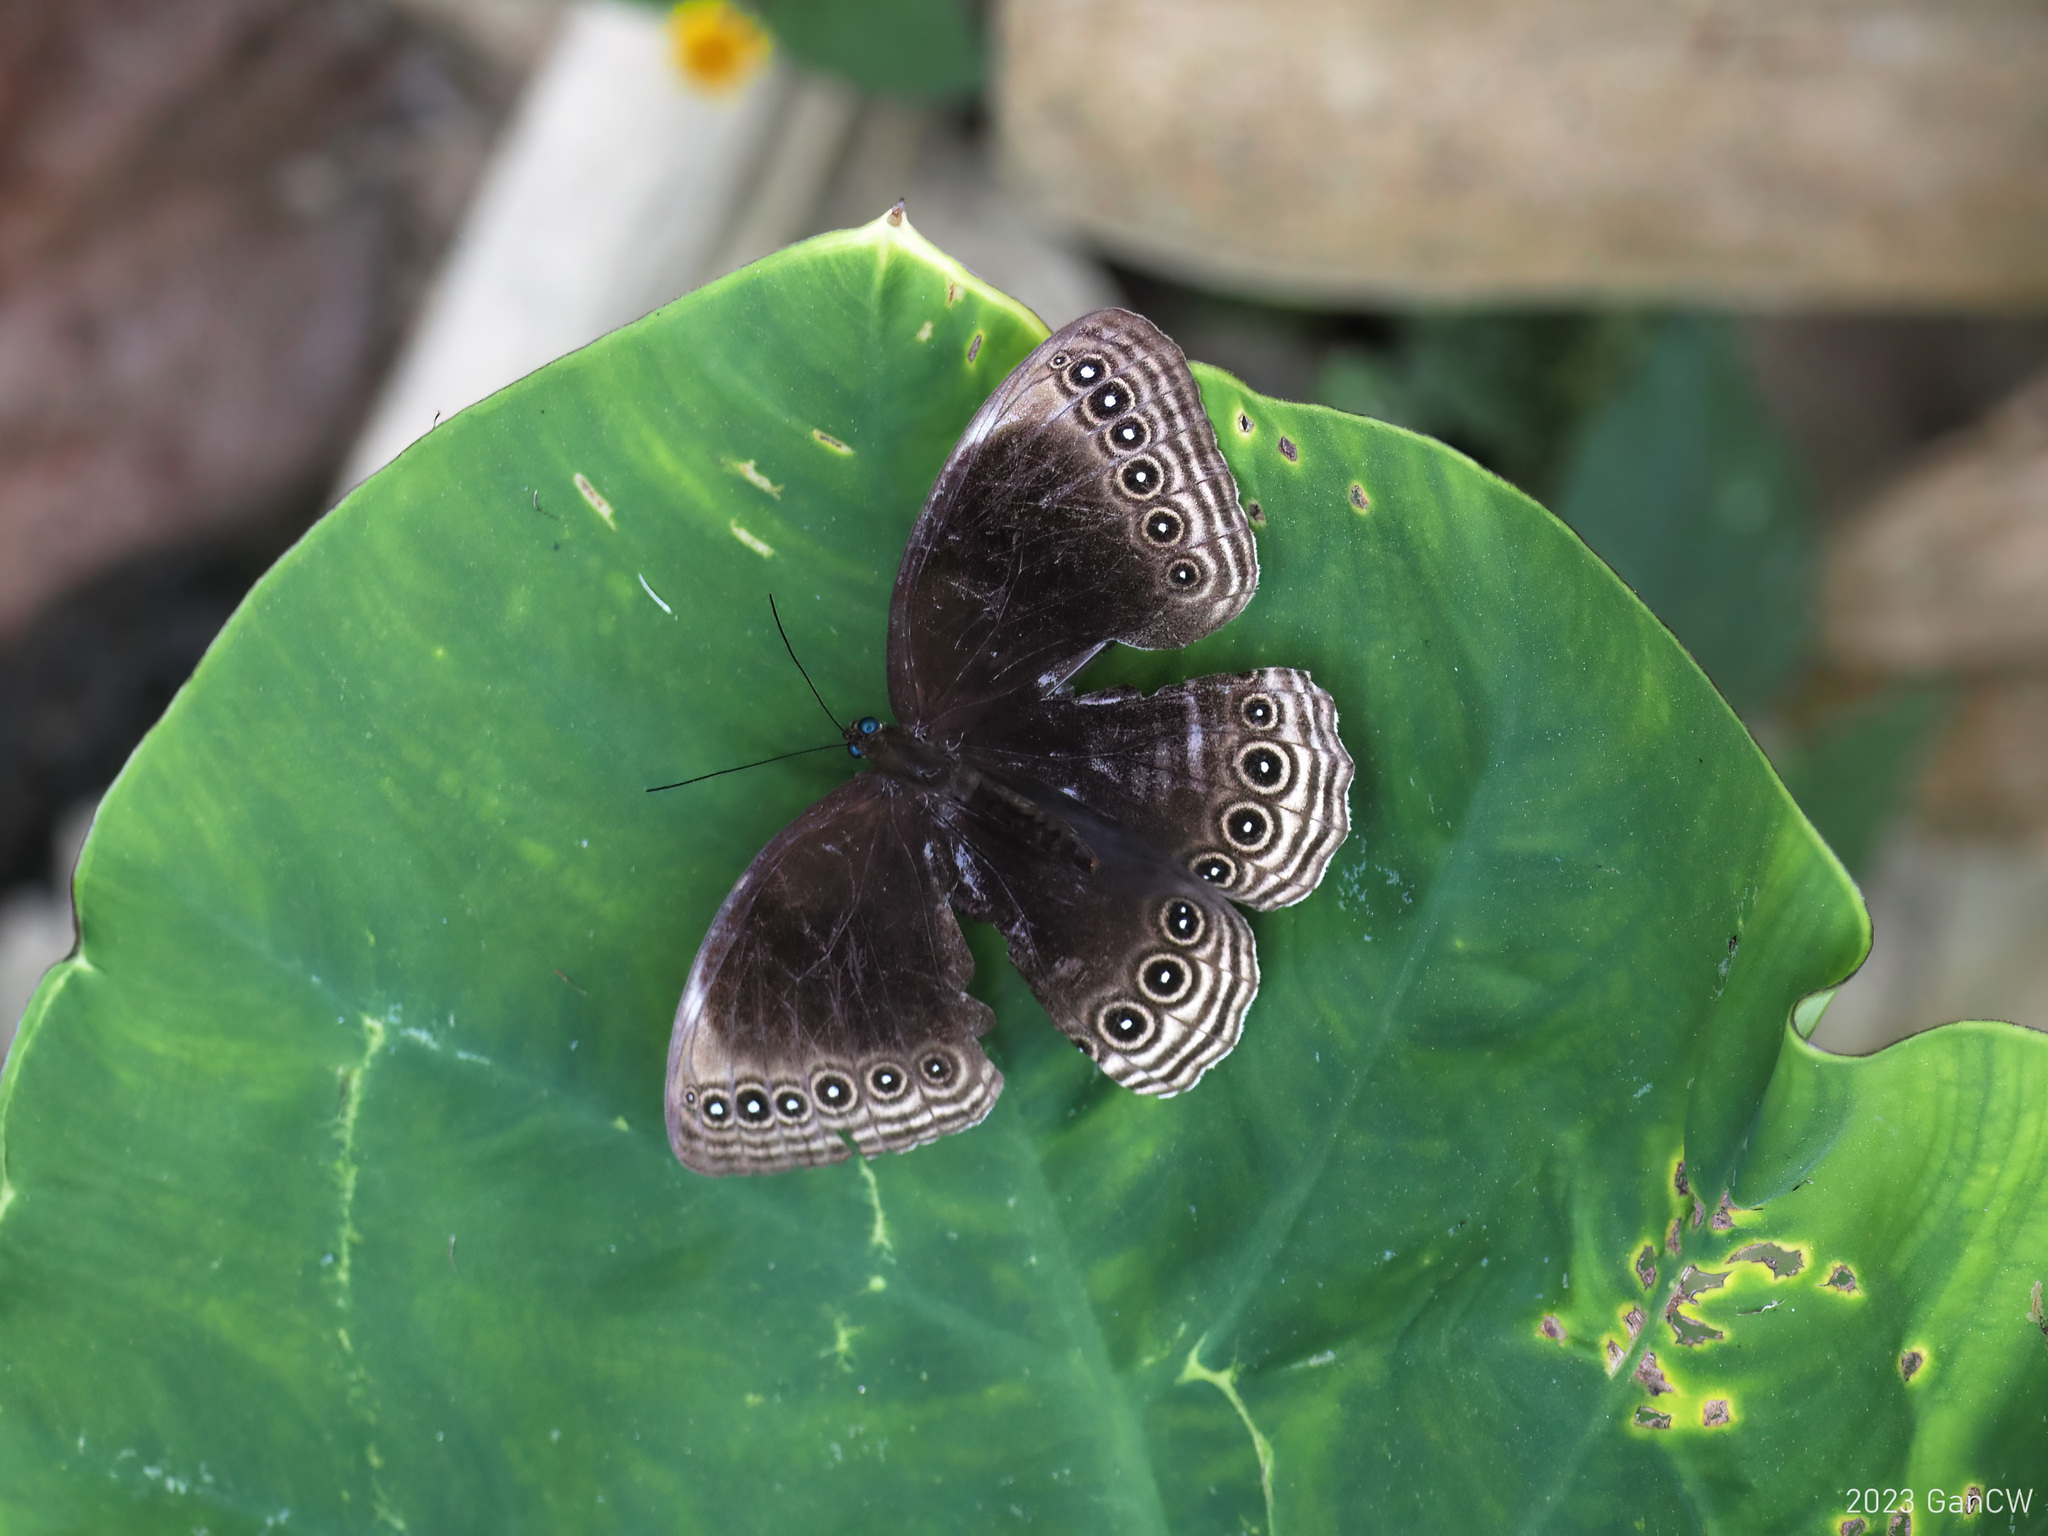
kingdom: Animalia
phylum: Arthropoda
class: Insecta
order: Lepidoptera
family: Nymphalidae
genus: Ethope
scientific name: Ethope himachala
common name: Dusky diadem
